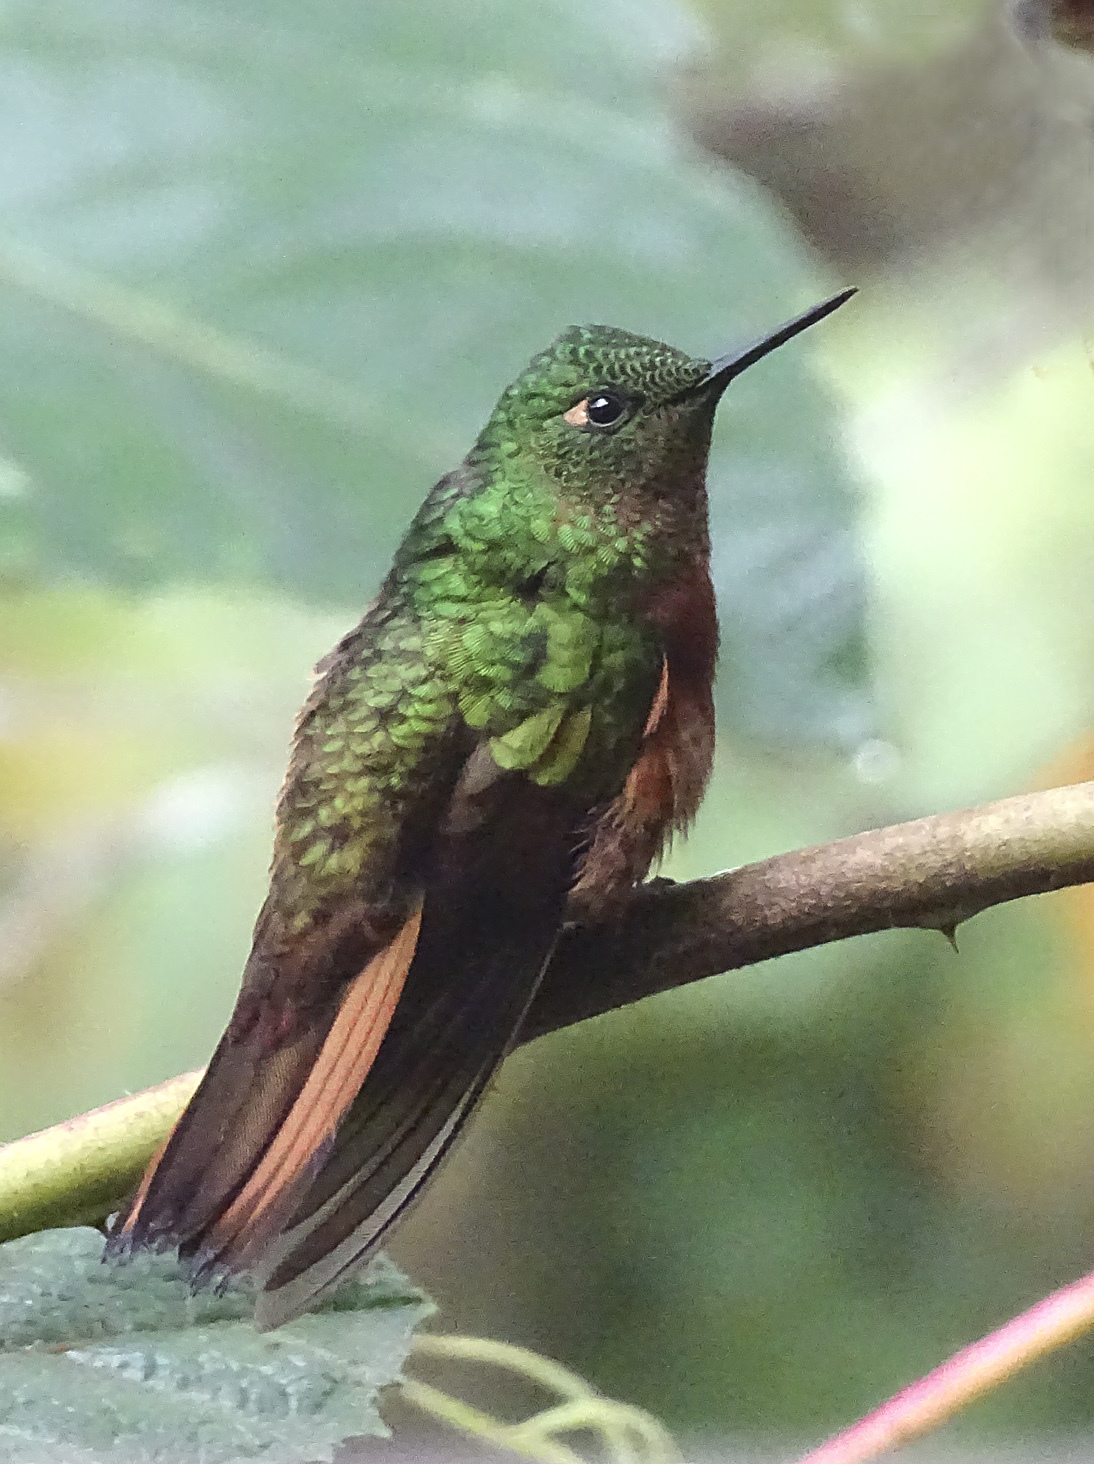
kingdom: Animalia
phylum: Chordata
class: Aves
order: Apodiformes
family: Trochilidae
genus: Boissonneaua
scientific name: Boissonneaua matthewsii
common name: Chestnut-breasted coronet
